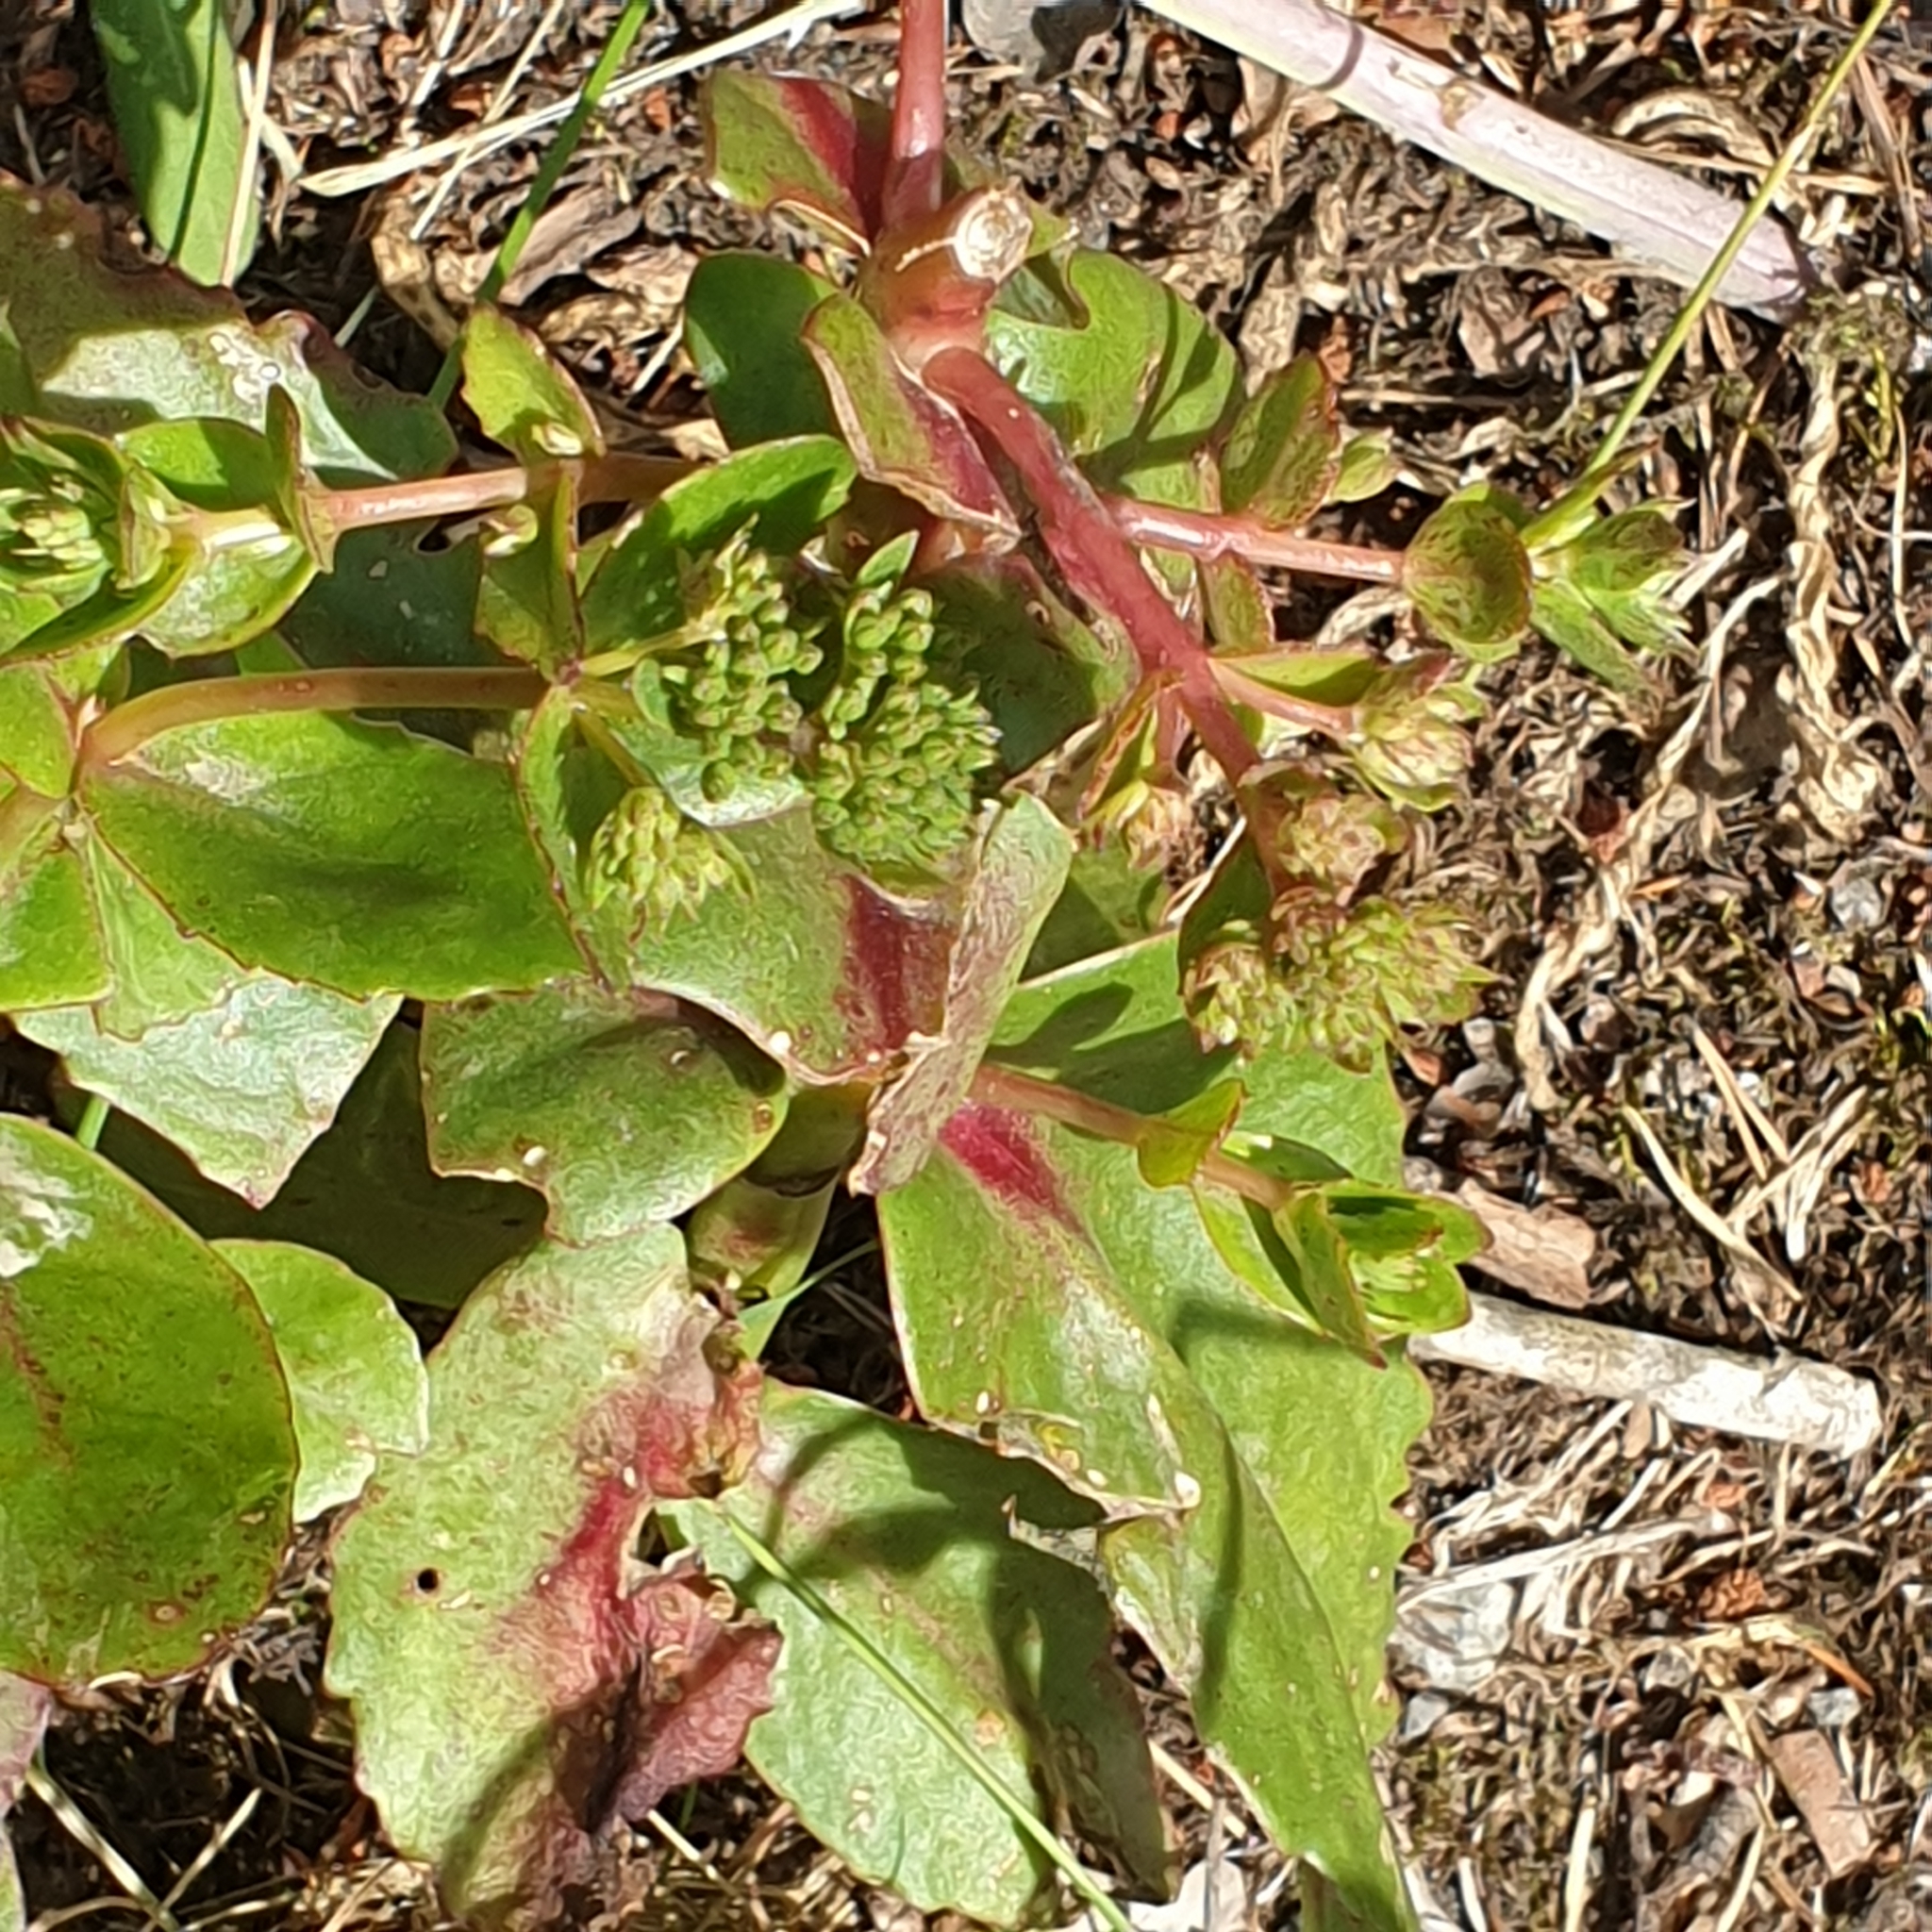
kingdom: Plantae
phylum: Tracheophyta
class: Magnoliopsida
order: Saxifragales
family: Crassulaceae
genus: Hylotelephium
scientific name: Hylotelephium maximum
